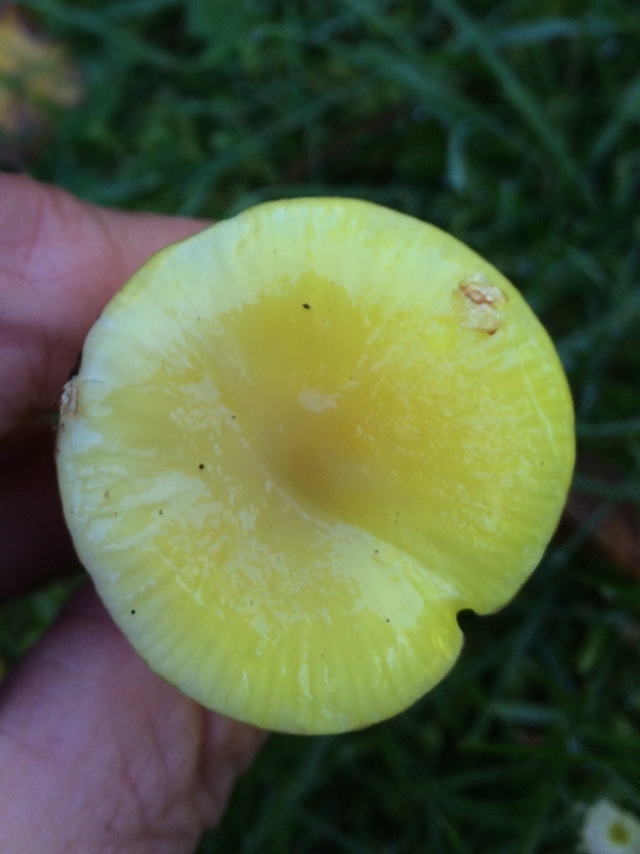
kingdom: Fungi
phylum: Basidiomycota
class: Agaricomycetes
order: Agaricales
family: Hygrophoraceae
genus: Hygrocybe
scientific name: Hygrocybe chlorophana
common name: Golden waxcap
